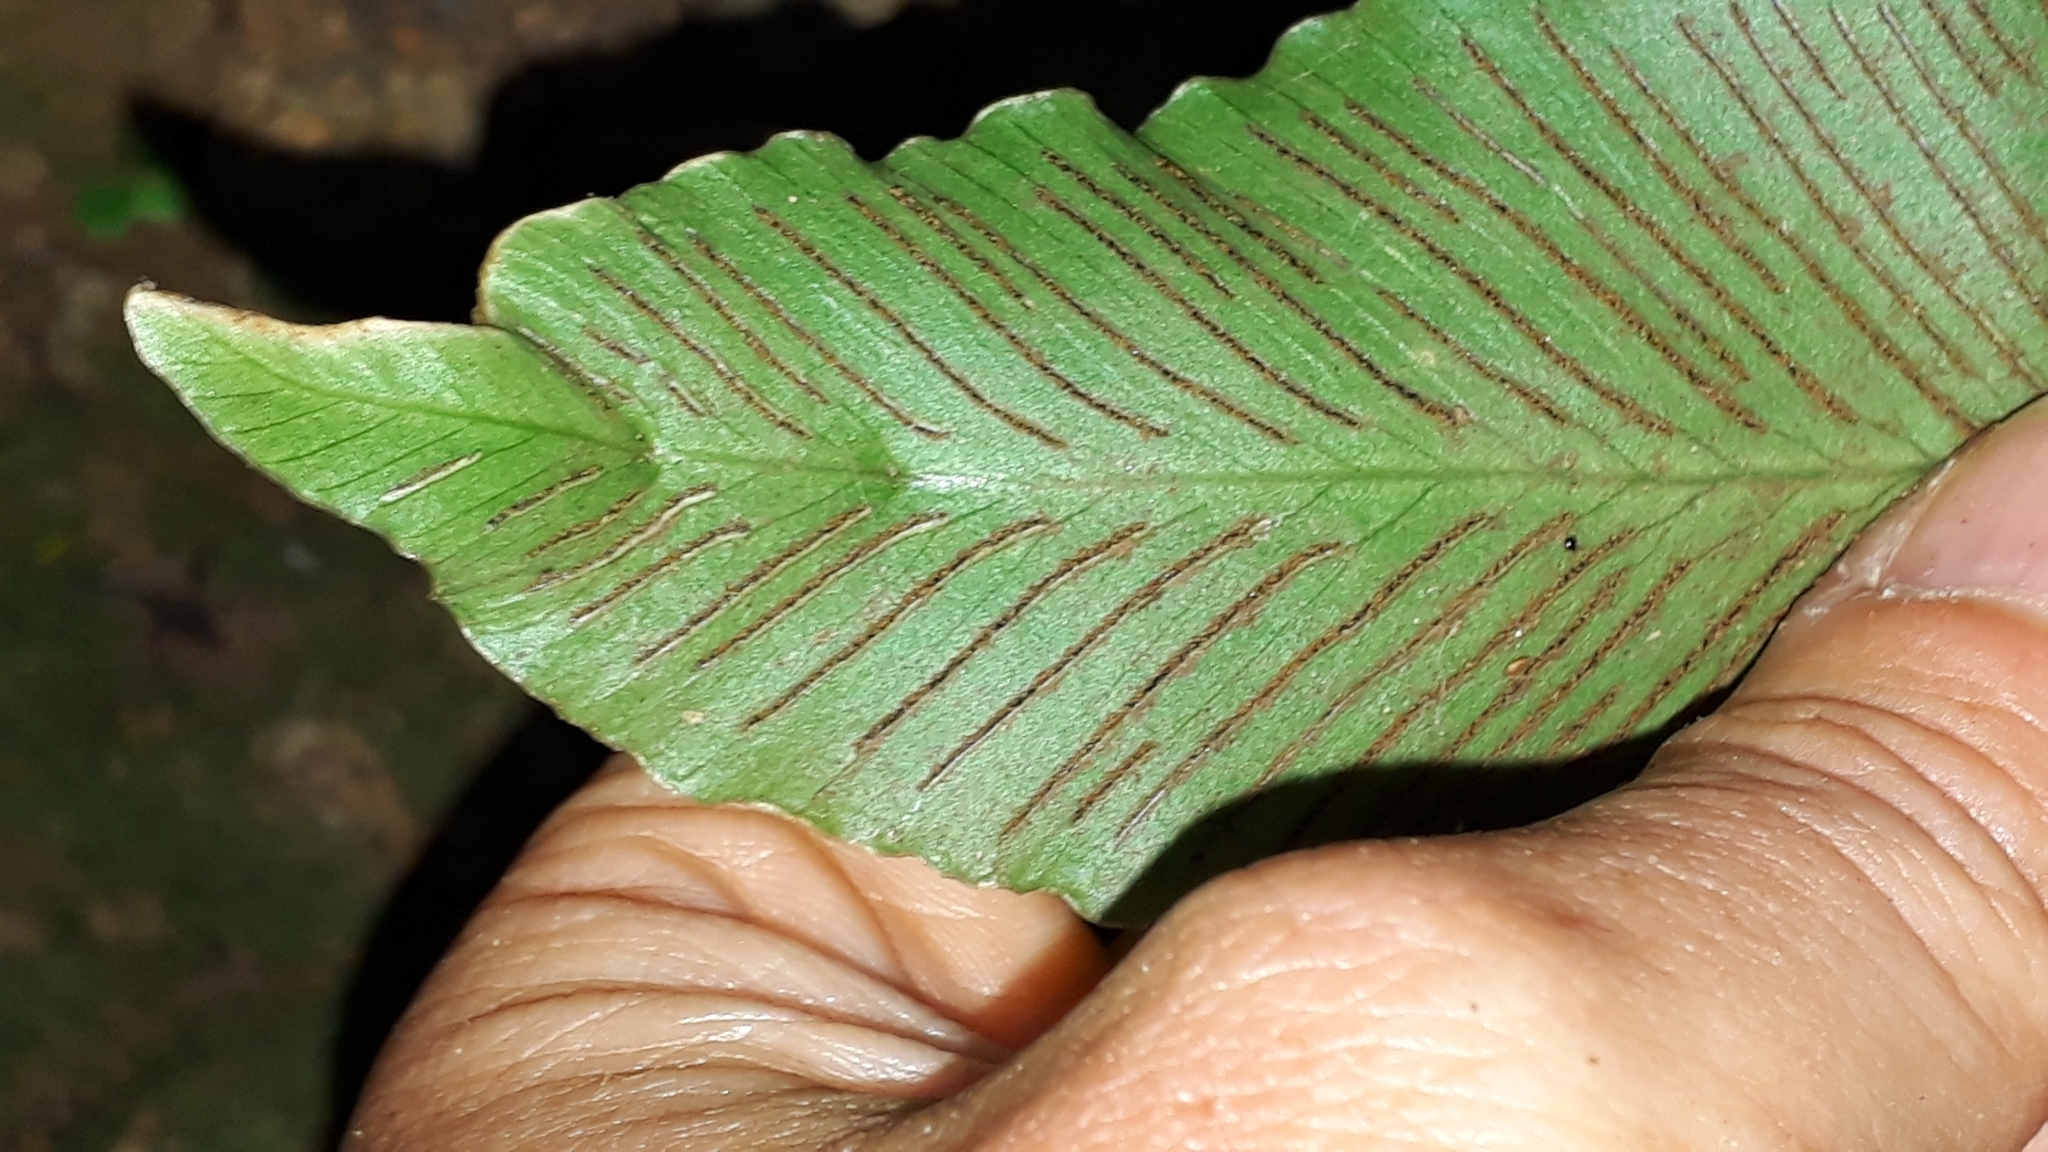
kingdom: Plantae
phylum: Tracheophyta
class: Polypodiopsida
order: Polypodiales
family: Aspleniaceae
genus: Asplenium
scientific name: Asplenium hemionitis
